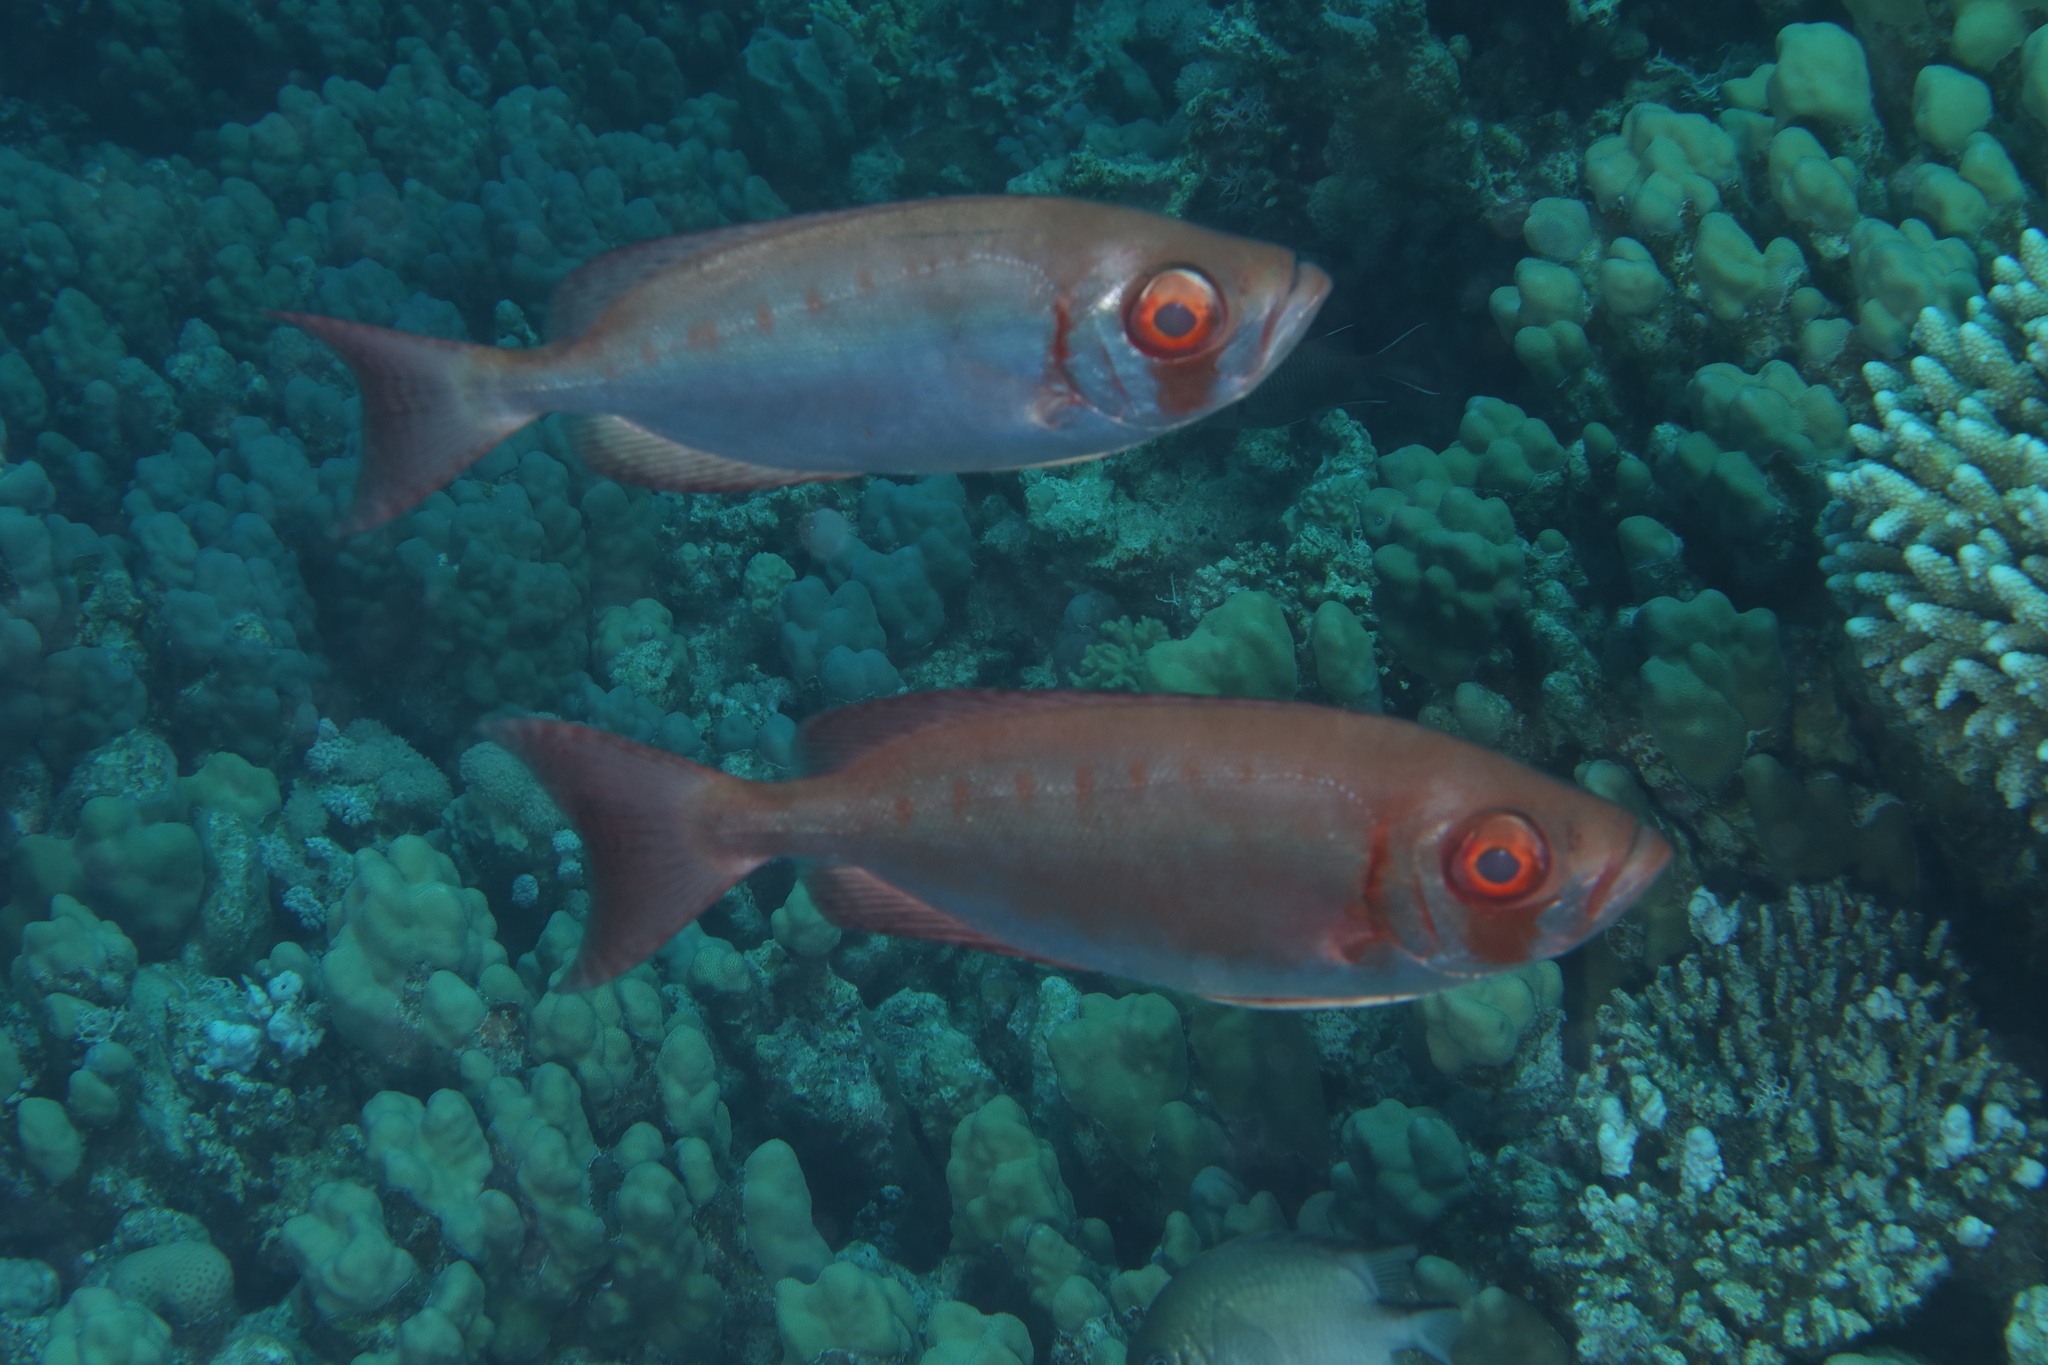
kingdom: Animalia
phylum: Chordata
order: Perciformes
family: Priacanthidae
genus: Priacanthus
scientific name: Priacanthus hamrur
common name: Moontail bullseye
